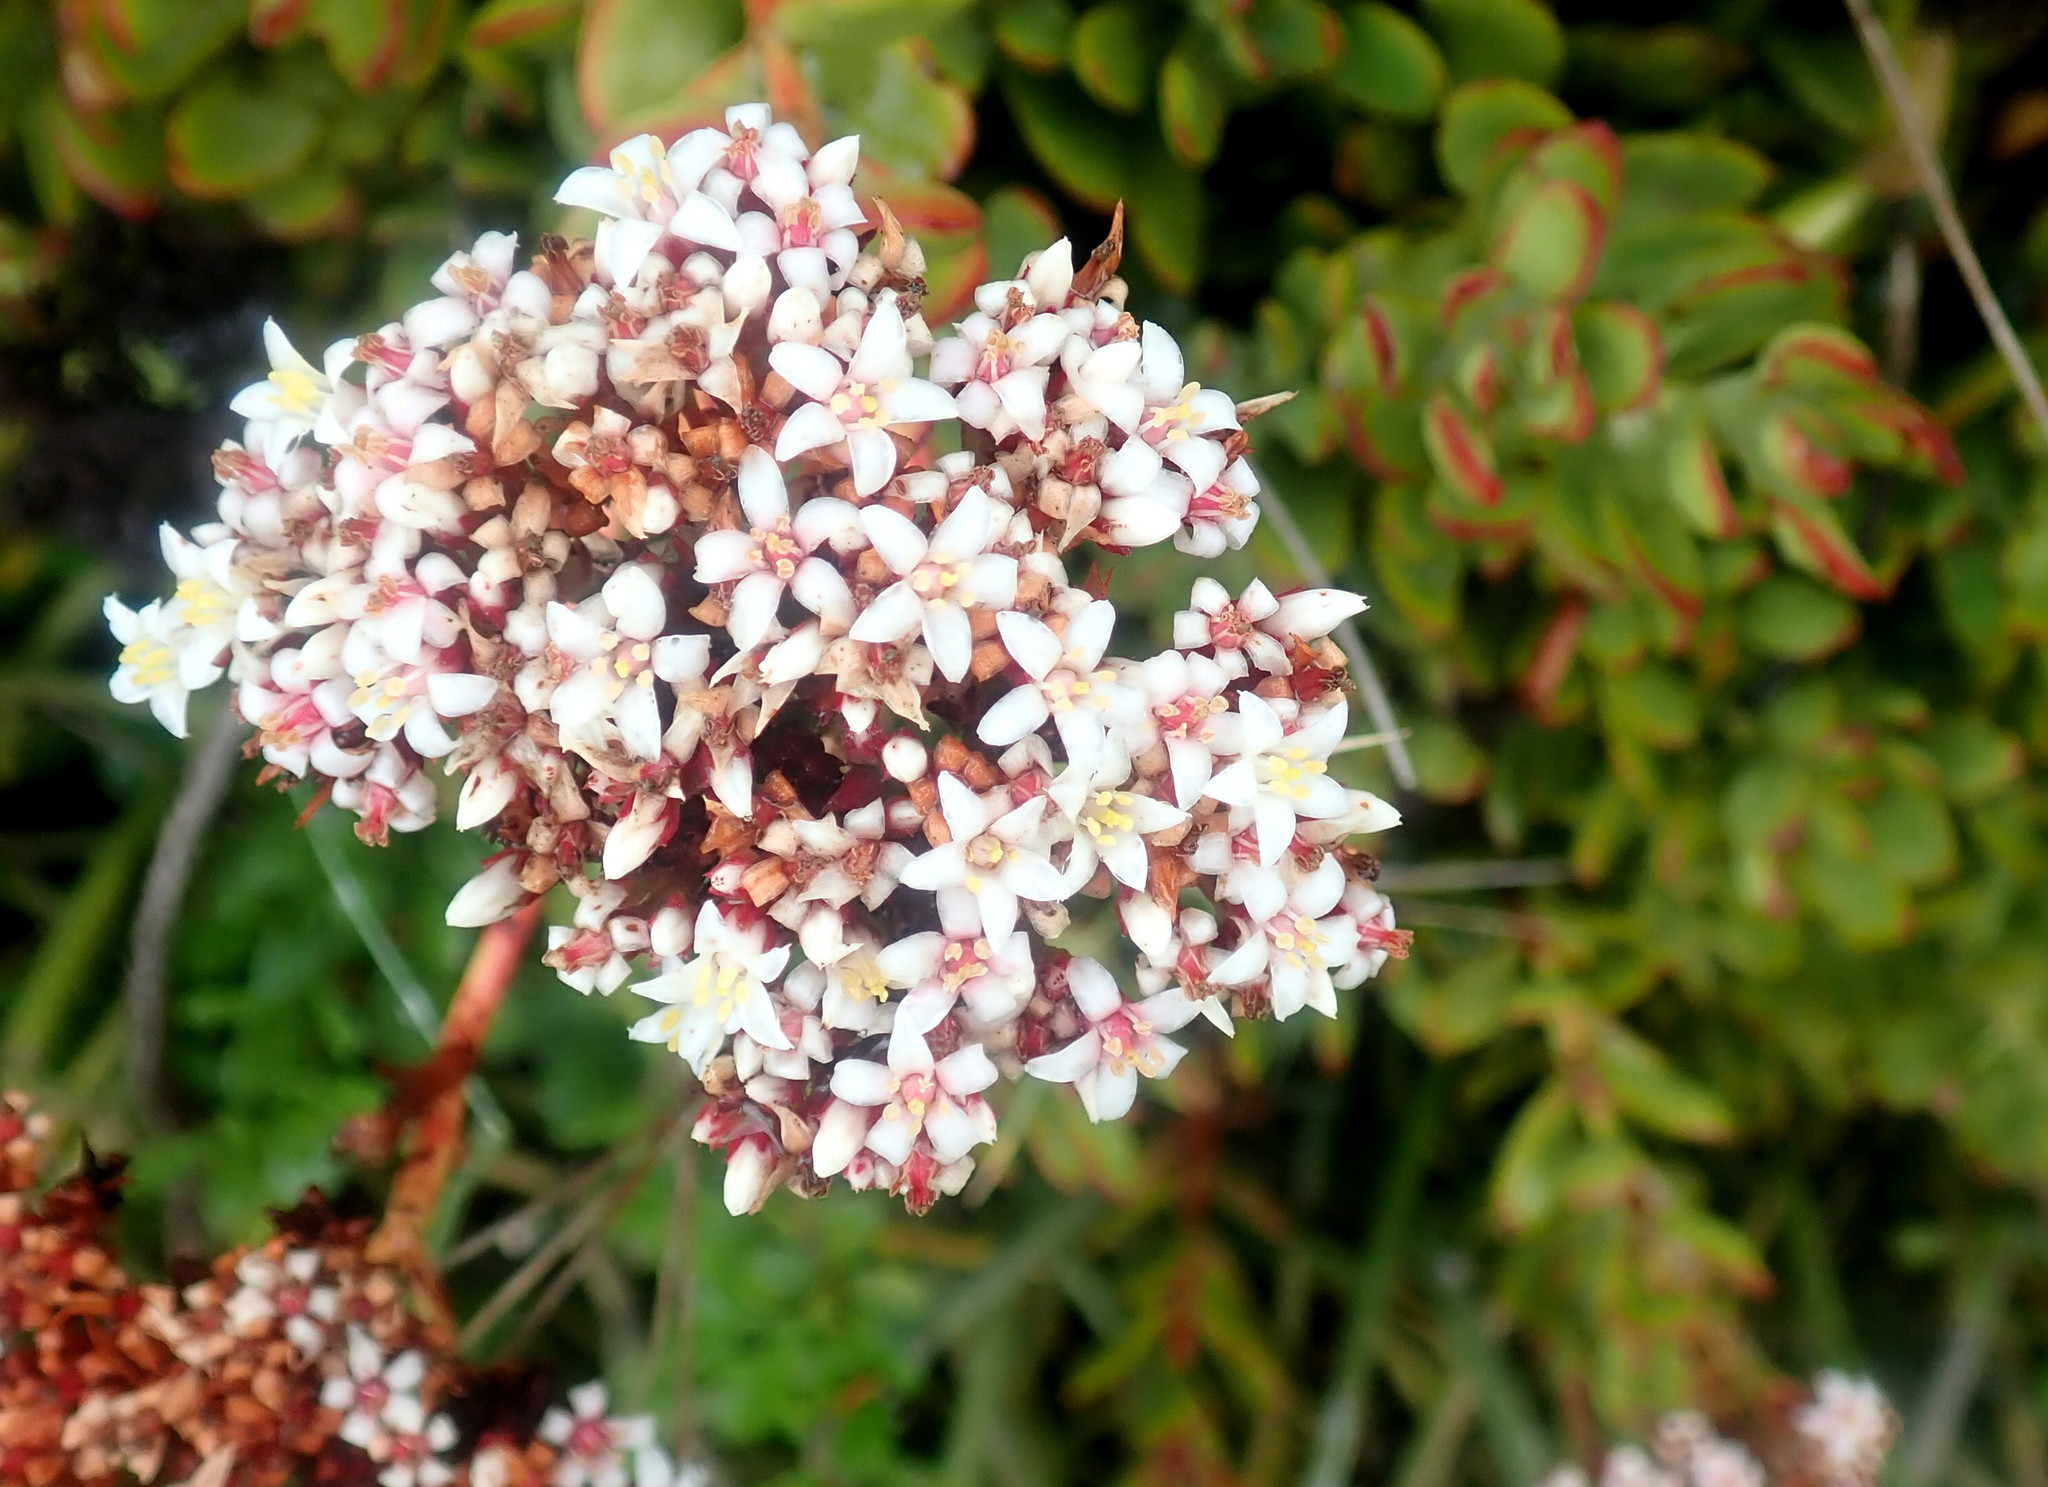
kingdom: Plantae
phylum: Tracheophyta
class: Magnoliopsida
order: Saxifragales
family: Crassulaceae
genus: Crassula
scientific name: Crassula rubricaulis
